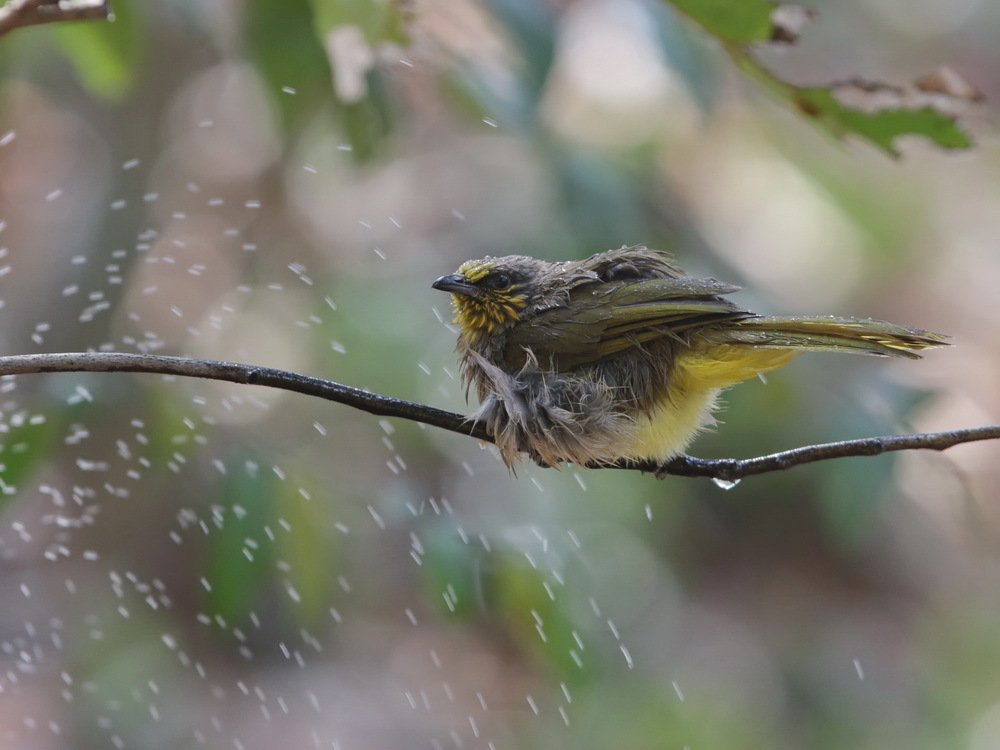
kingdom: Animalia
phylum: Chordata
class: Aves
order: Passeriformes
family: Pycnonotidae
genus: Pycnonotus
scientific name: Pycnonotus finlaysoni
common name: Stripe-throated bulbul
